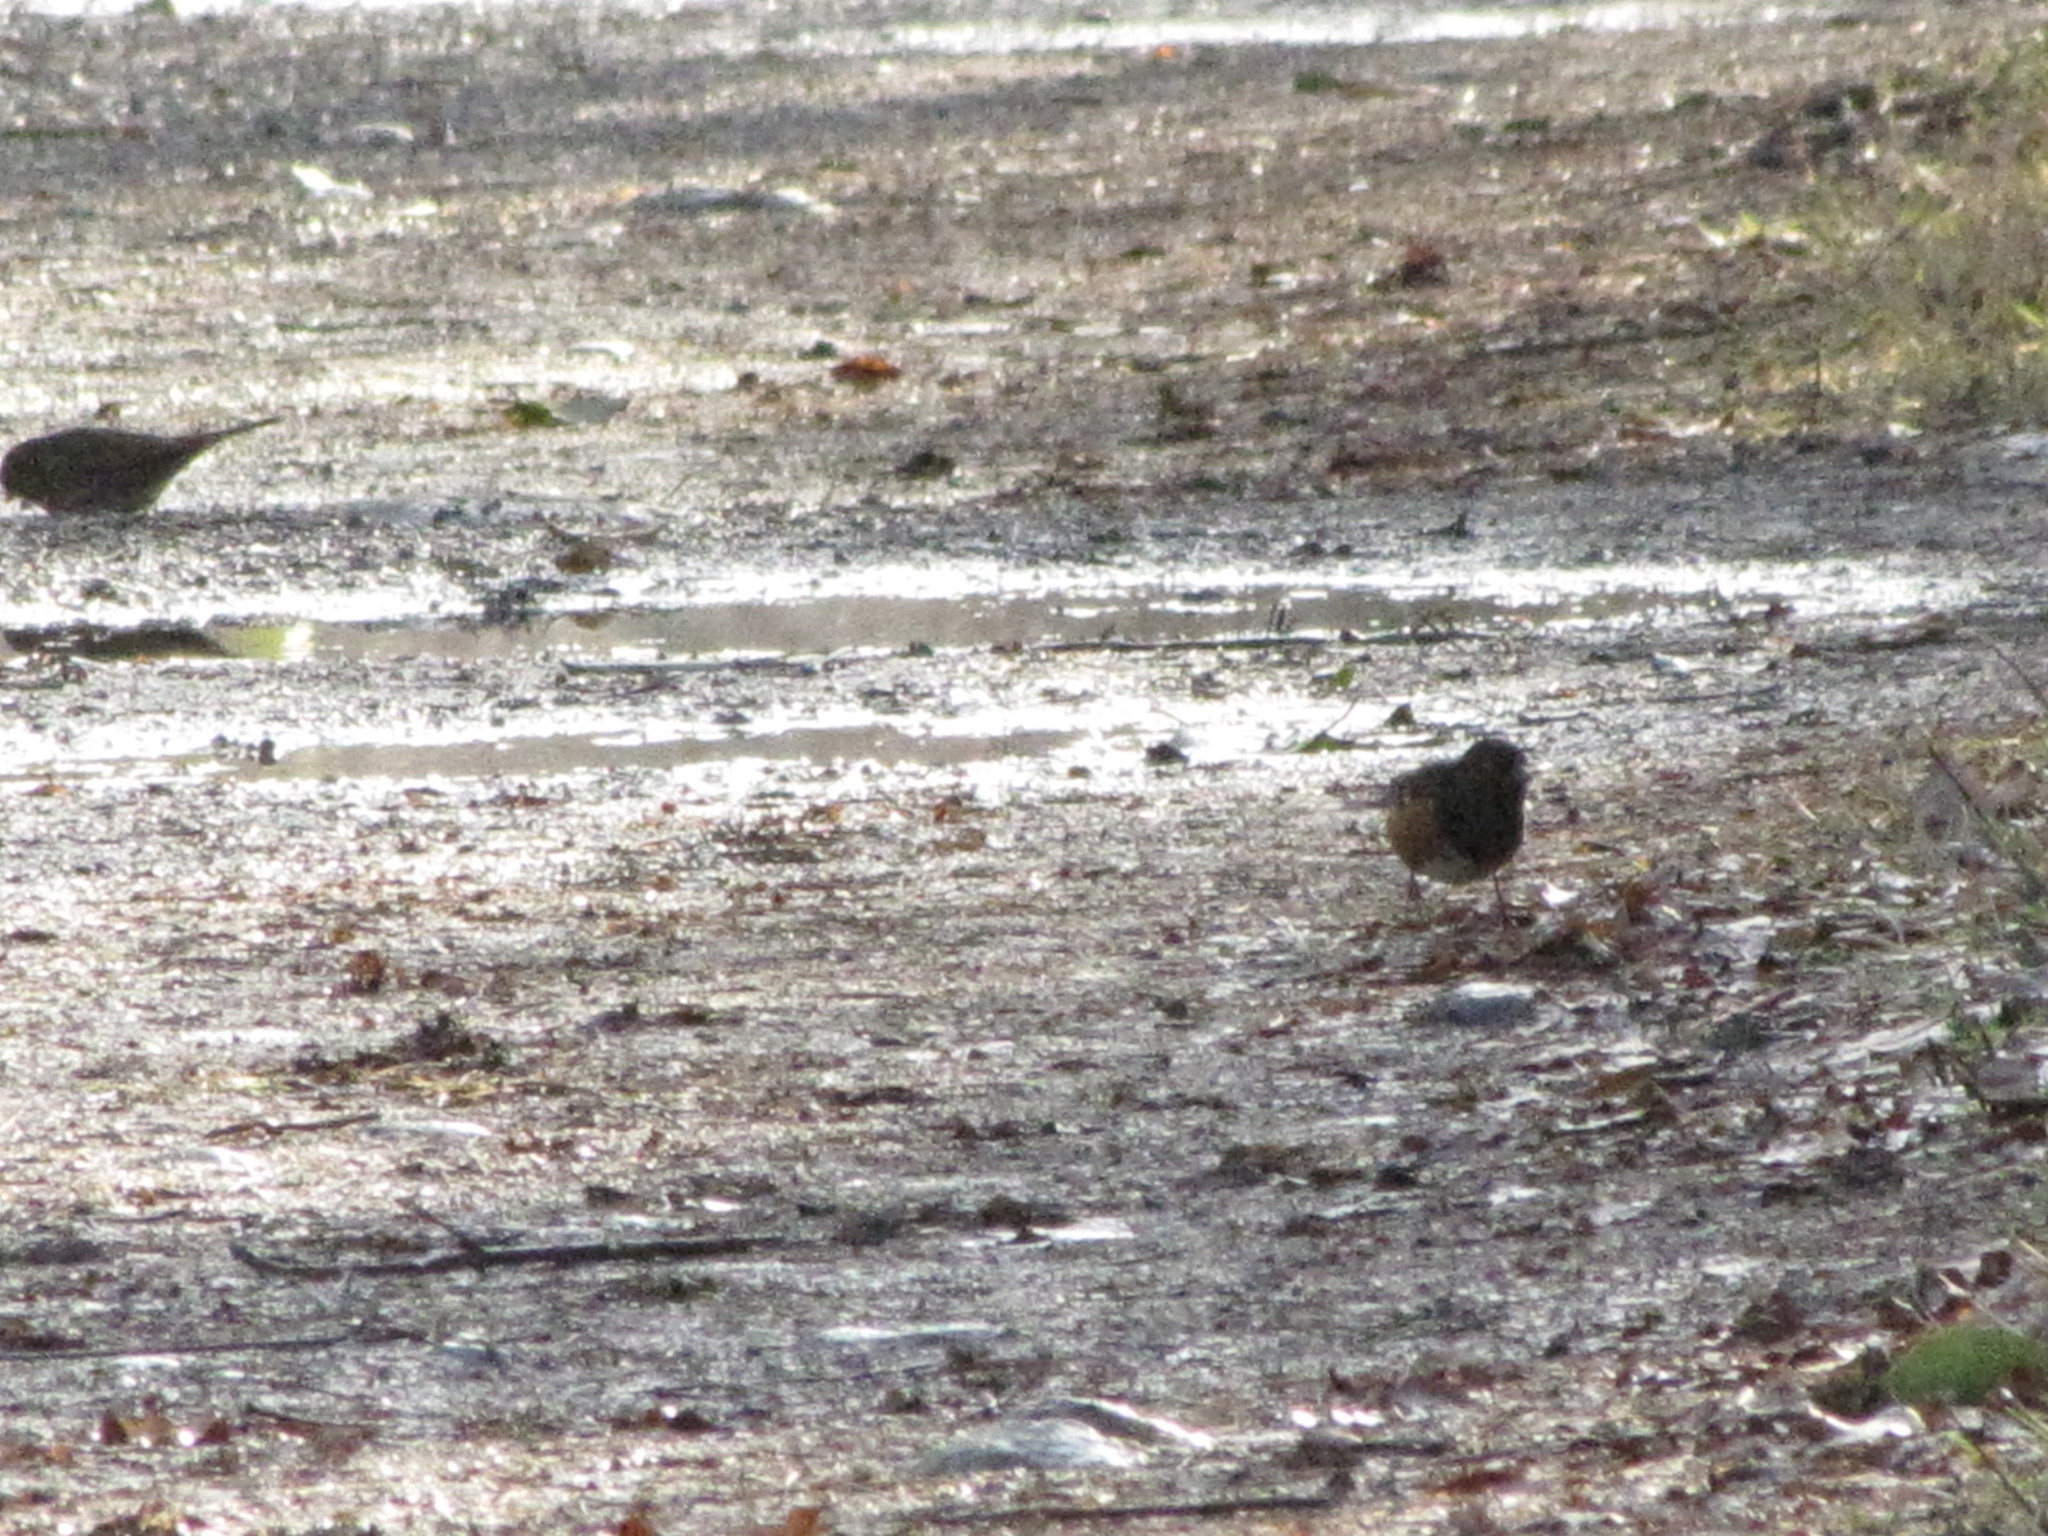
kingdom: Animalia
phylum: Chordata
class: Aves
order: Passeriformes
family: Passerellidae
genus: Pipilo
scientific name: Pipilo maculatus
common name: Spotted towhee
